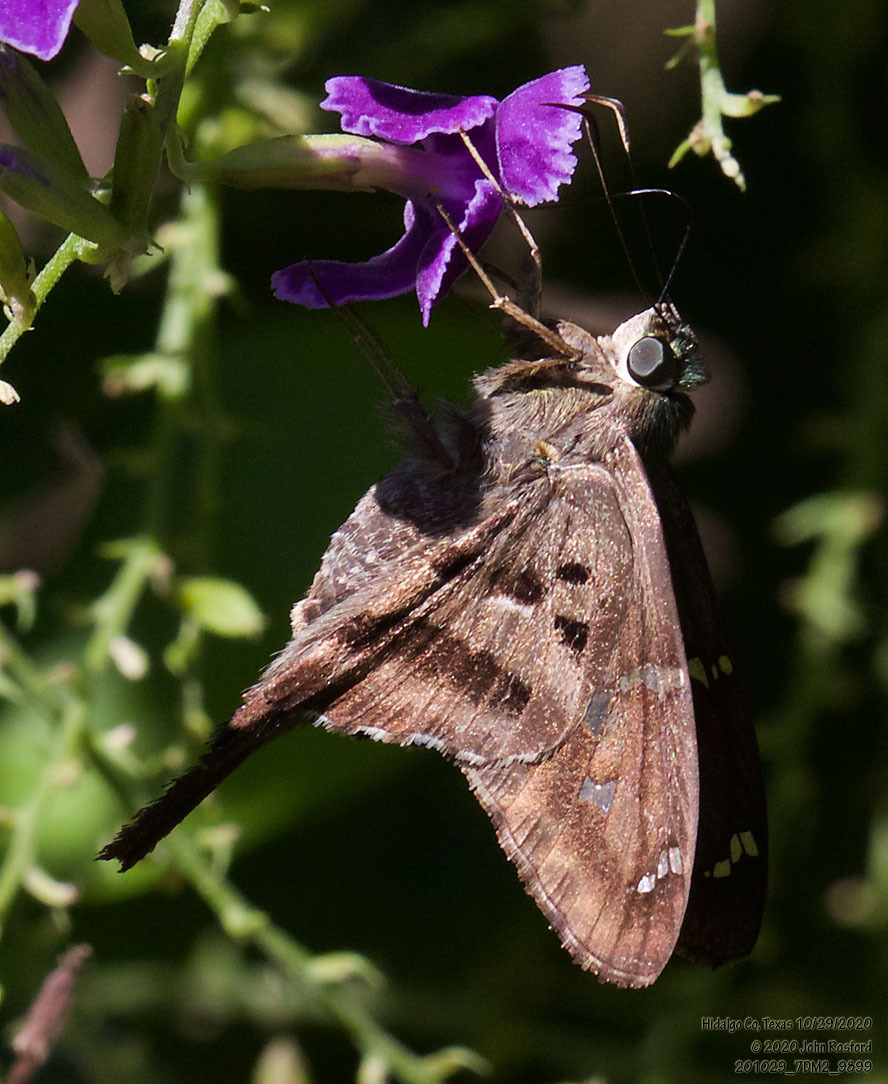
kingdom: Animalia
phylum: Arthropoda
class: Insecta
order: Lepidoptera
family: Hesperiidae
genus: Urbanus
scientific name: Urbanus proteus
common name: Long-tailed skipper
